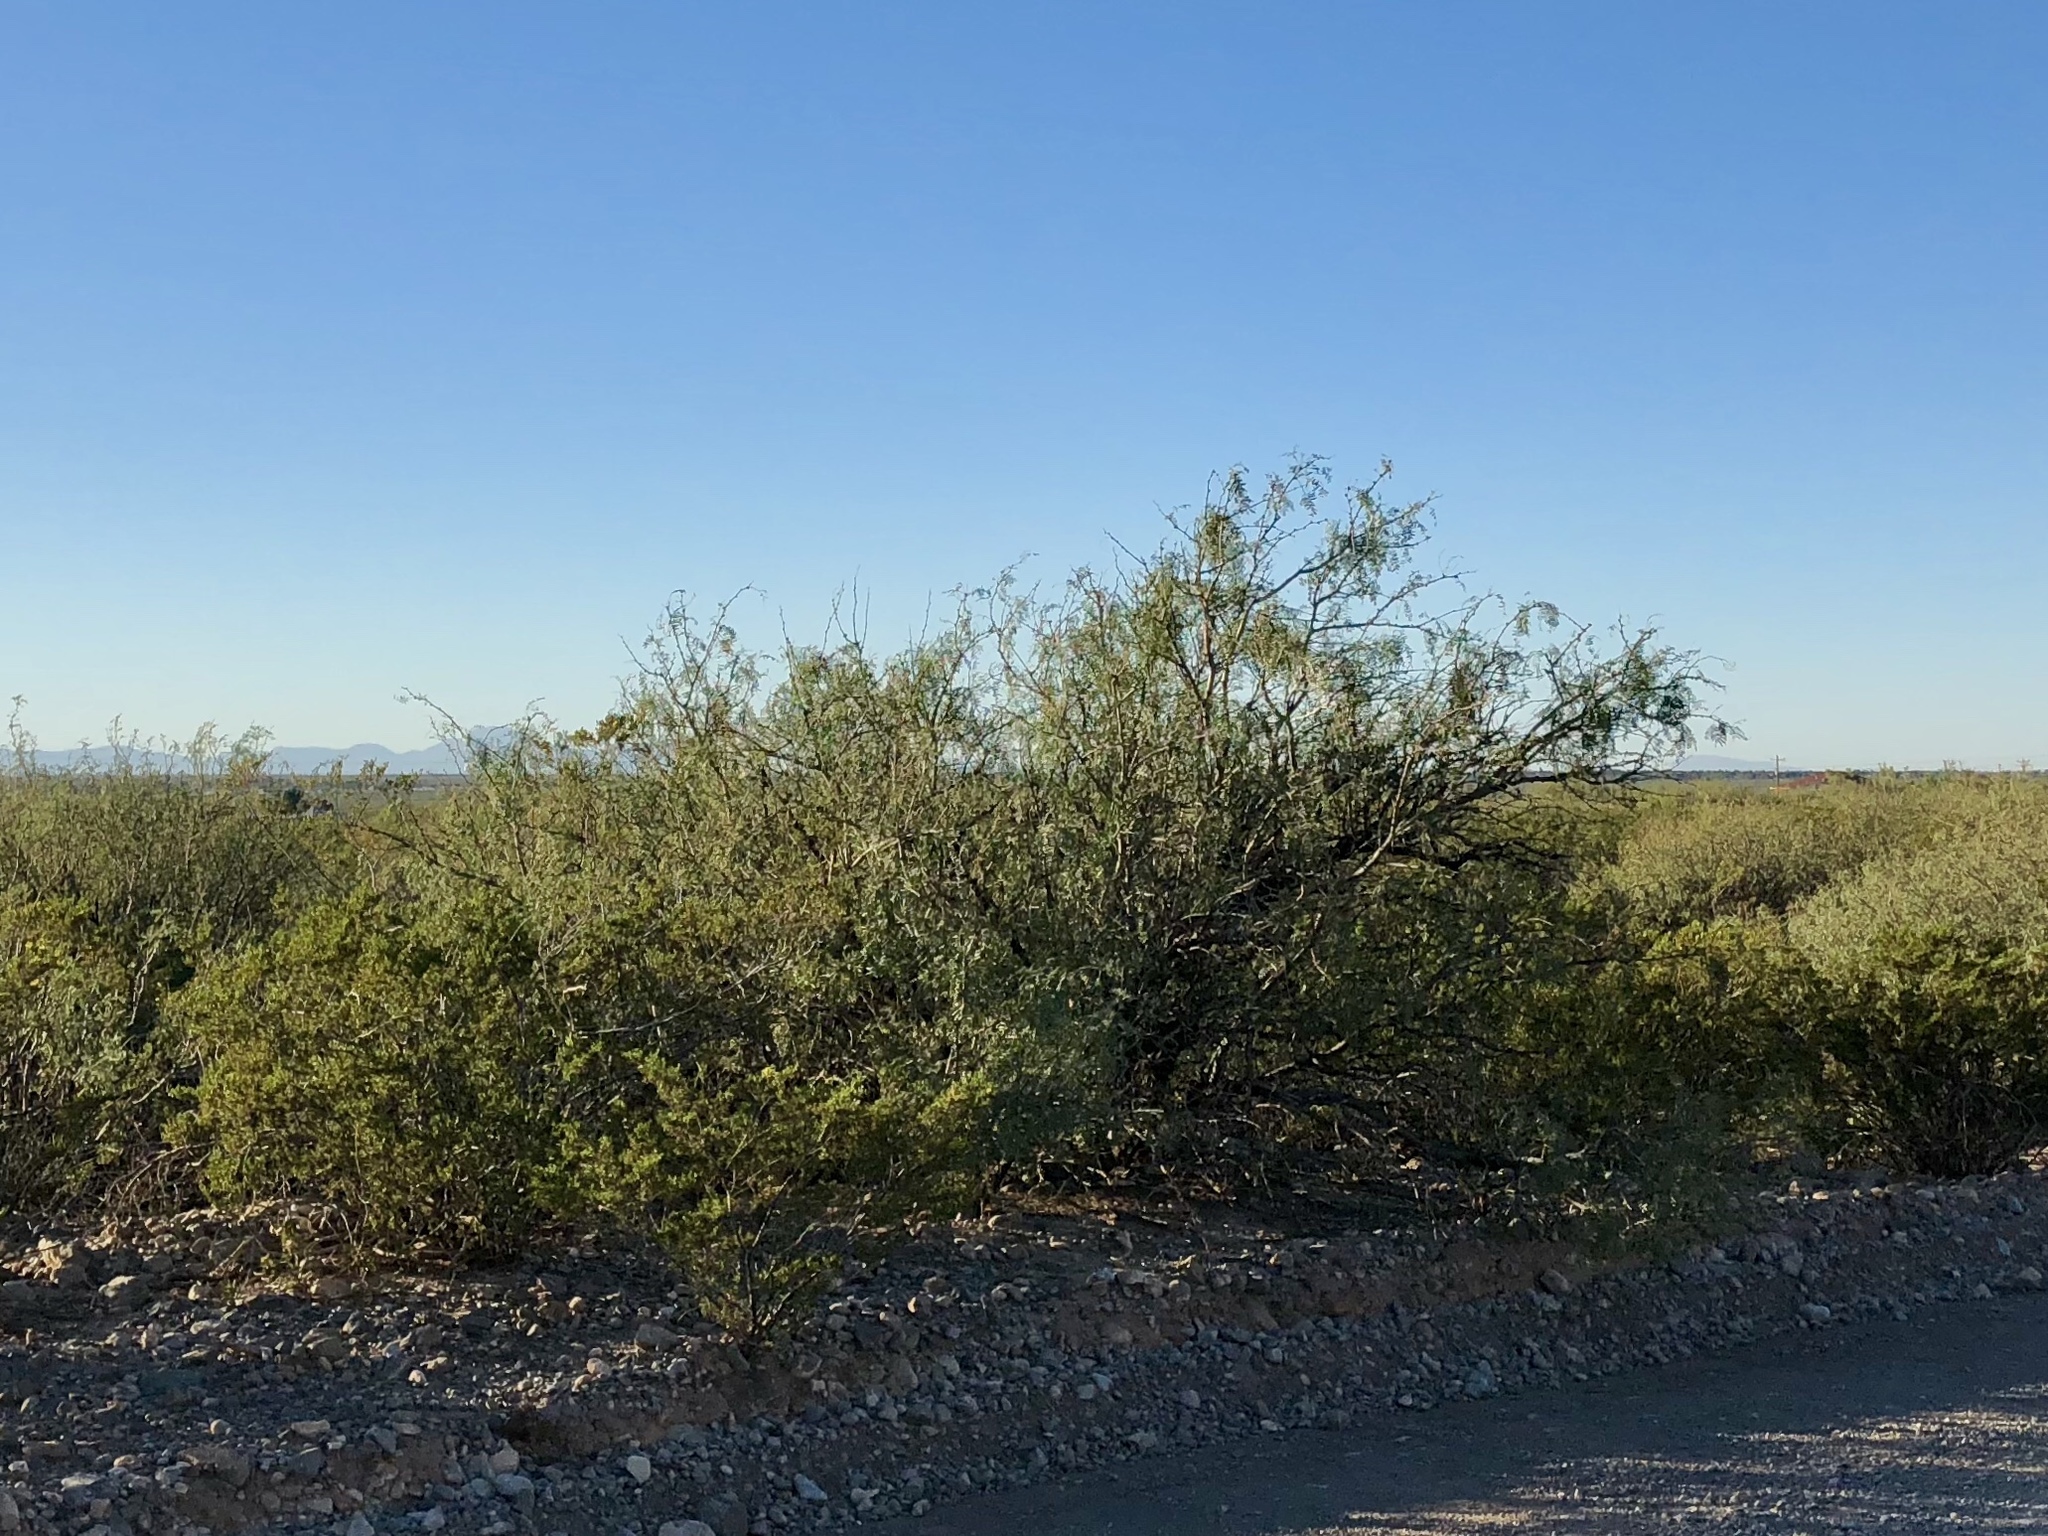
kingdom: Plantae
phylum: Tracheophyta
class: Magnoliopsida
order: Zygophyllales
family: Zygophyllaceae
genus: Larrea
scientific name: Larrea tridentata
